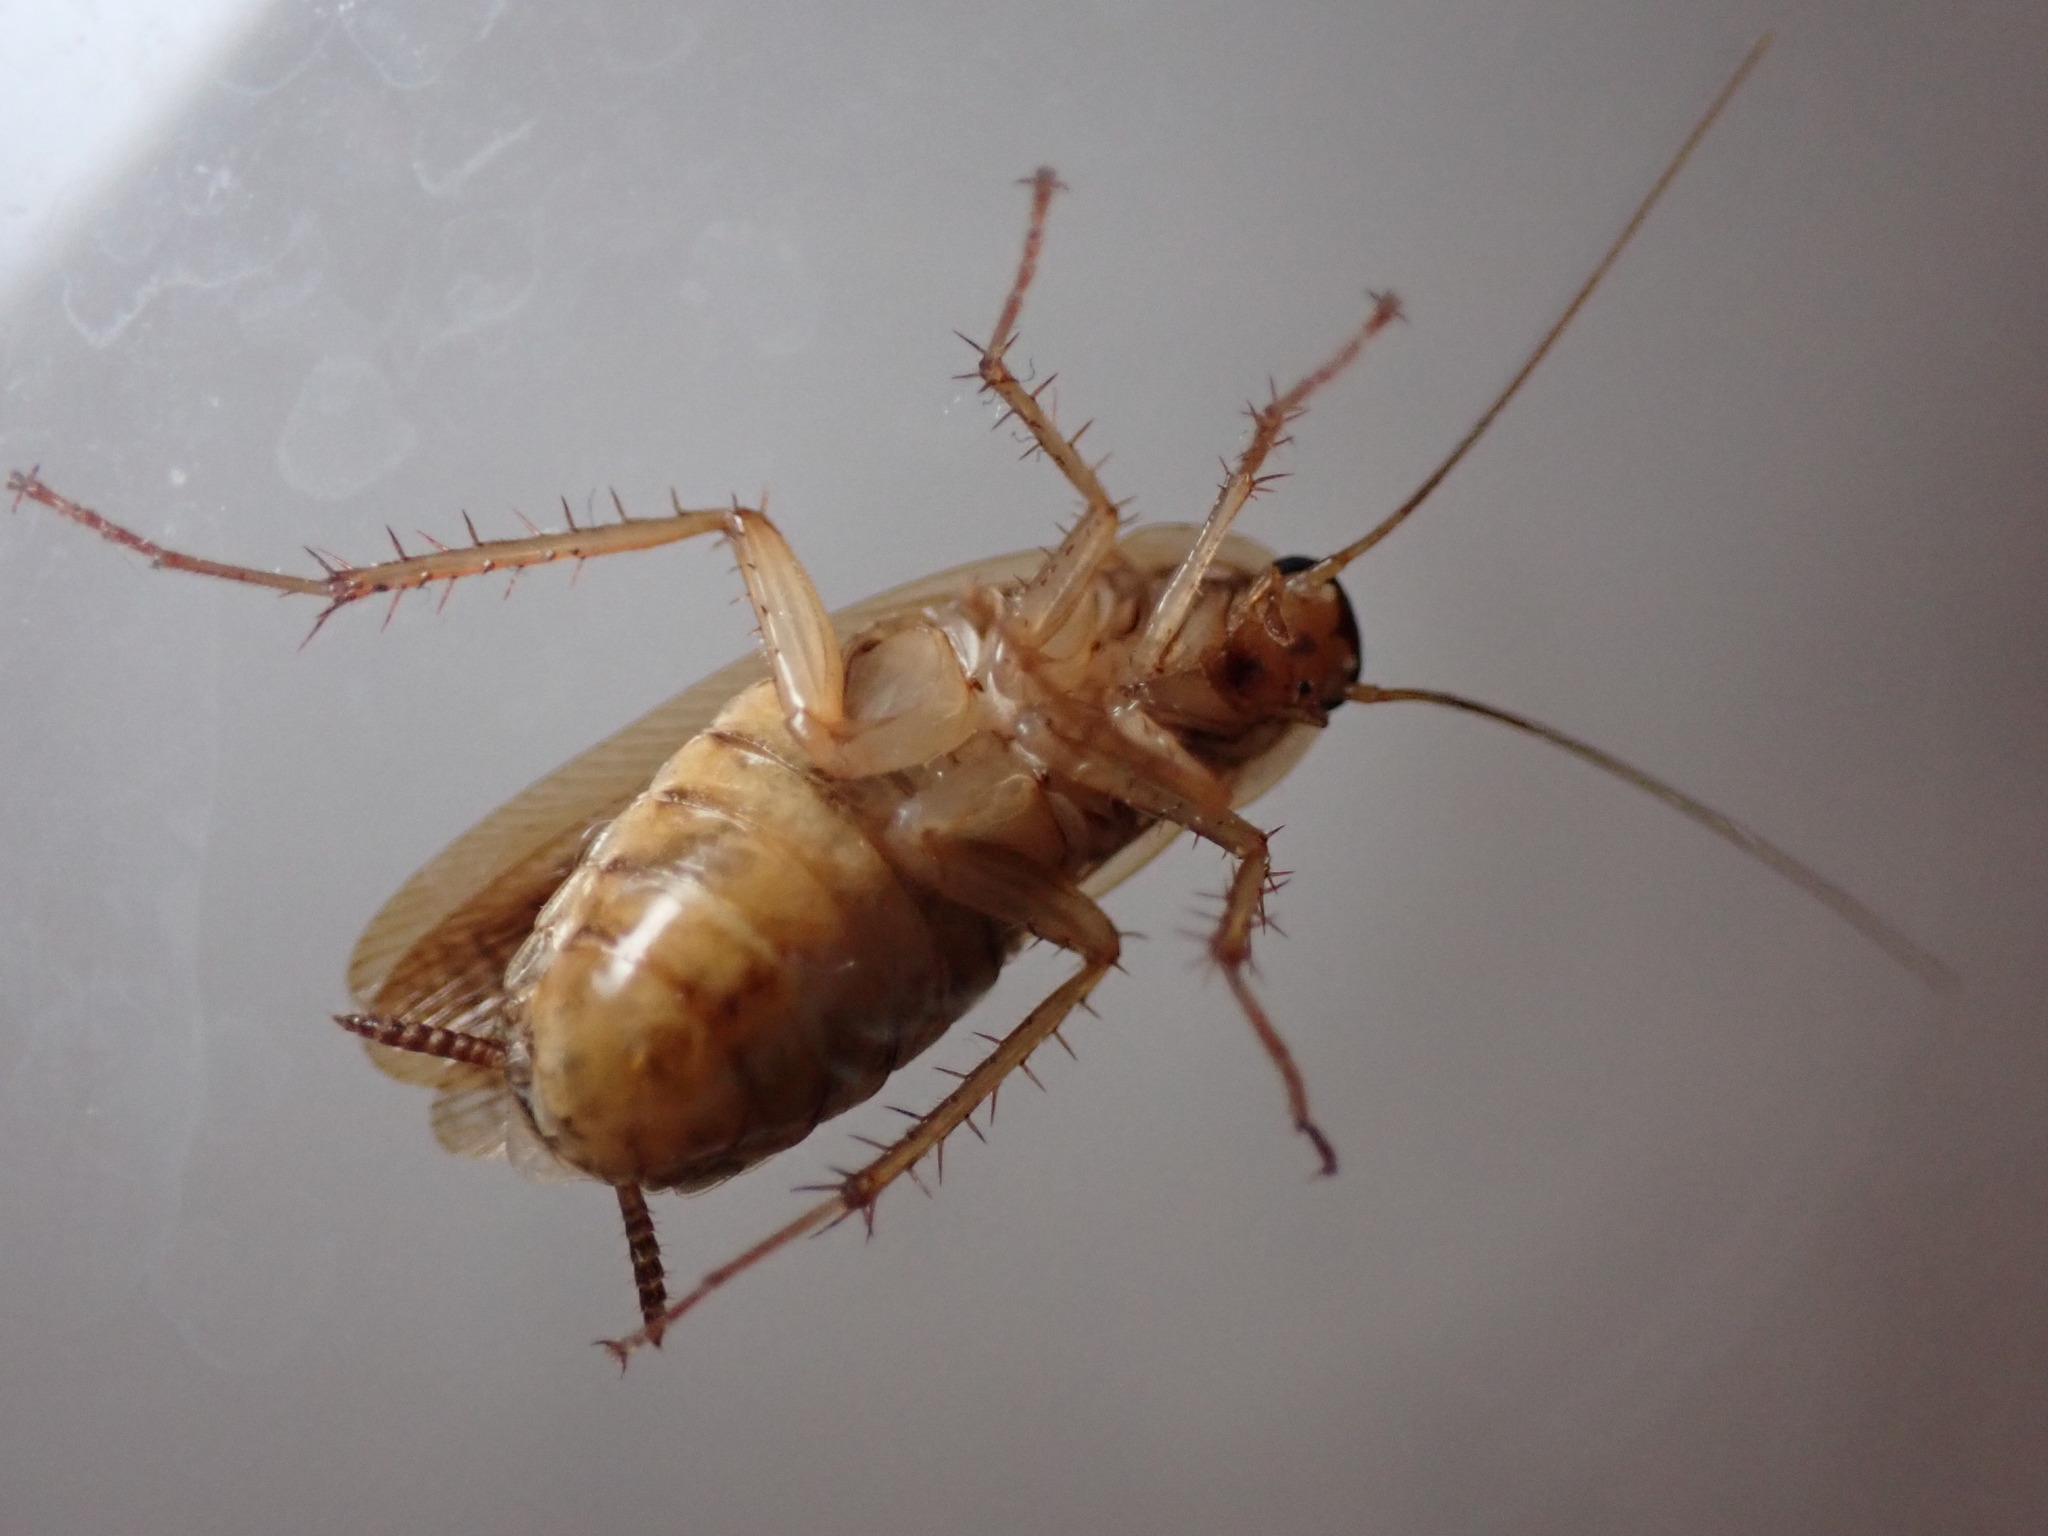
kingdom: Animalia
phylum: Arthropoda
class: Insecta
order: Blattodea
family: Ectobiidae
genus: Blattella
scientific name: Blattella germanica
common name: German cockroach
